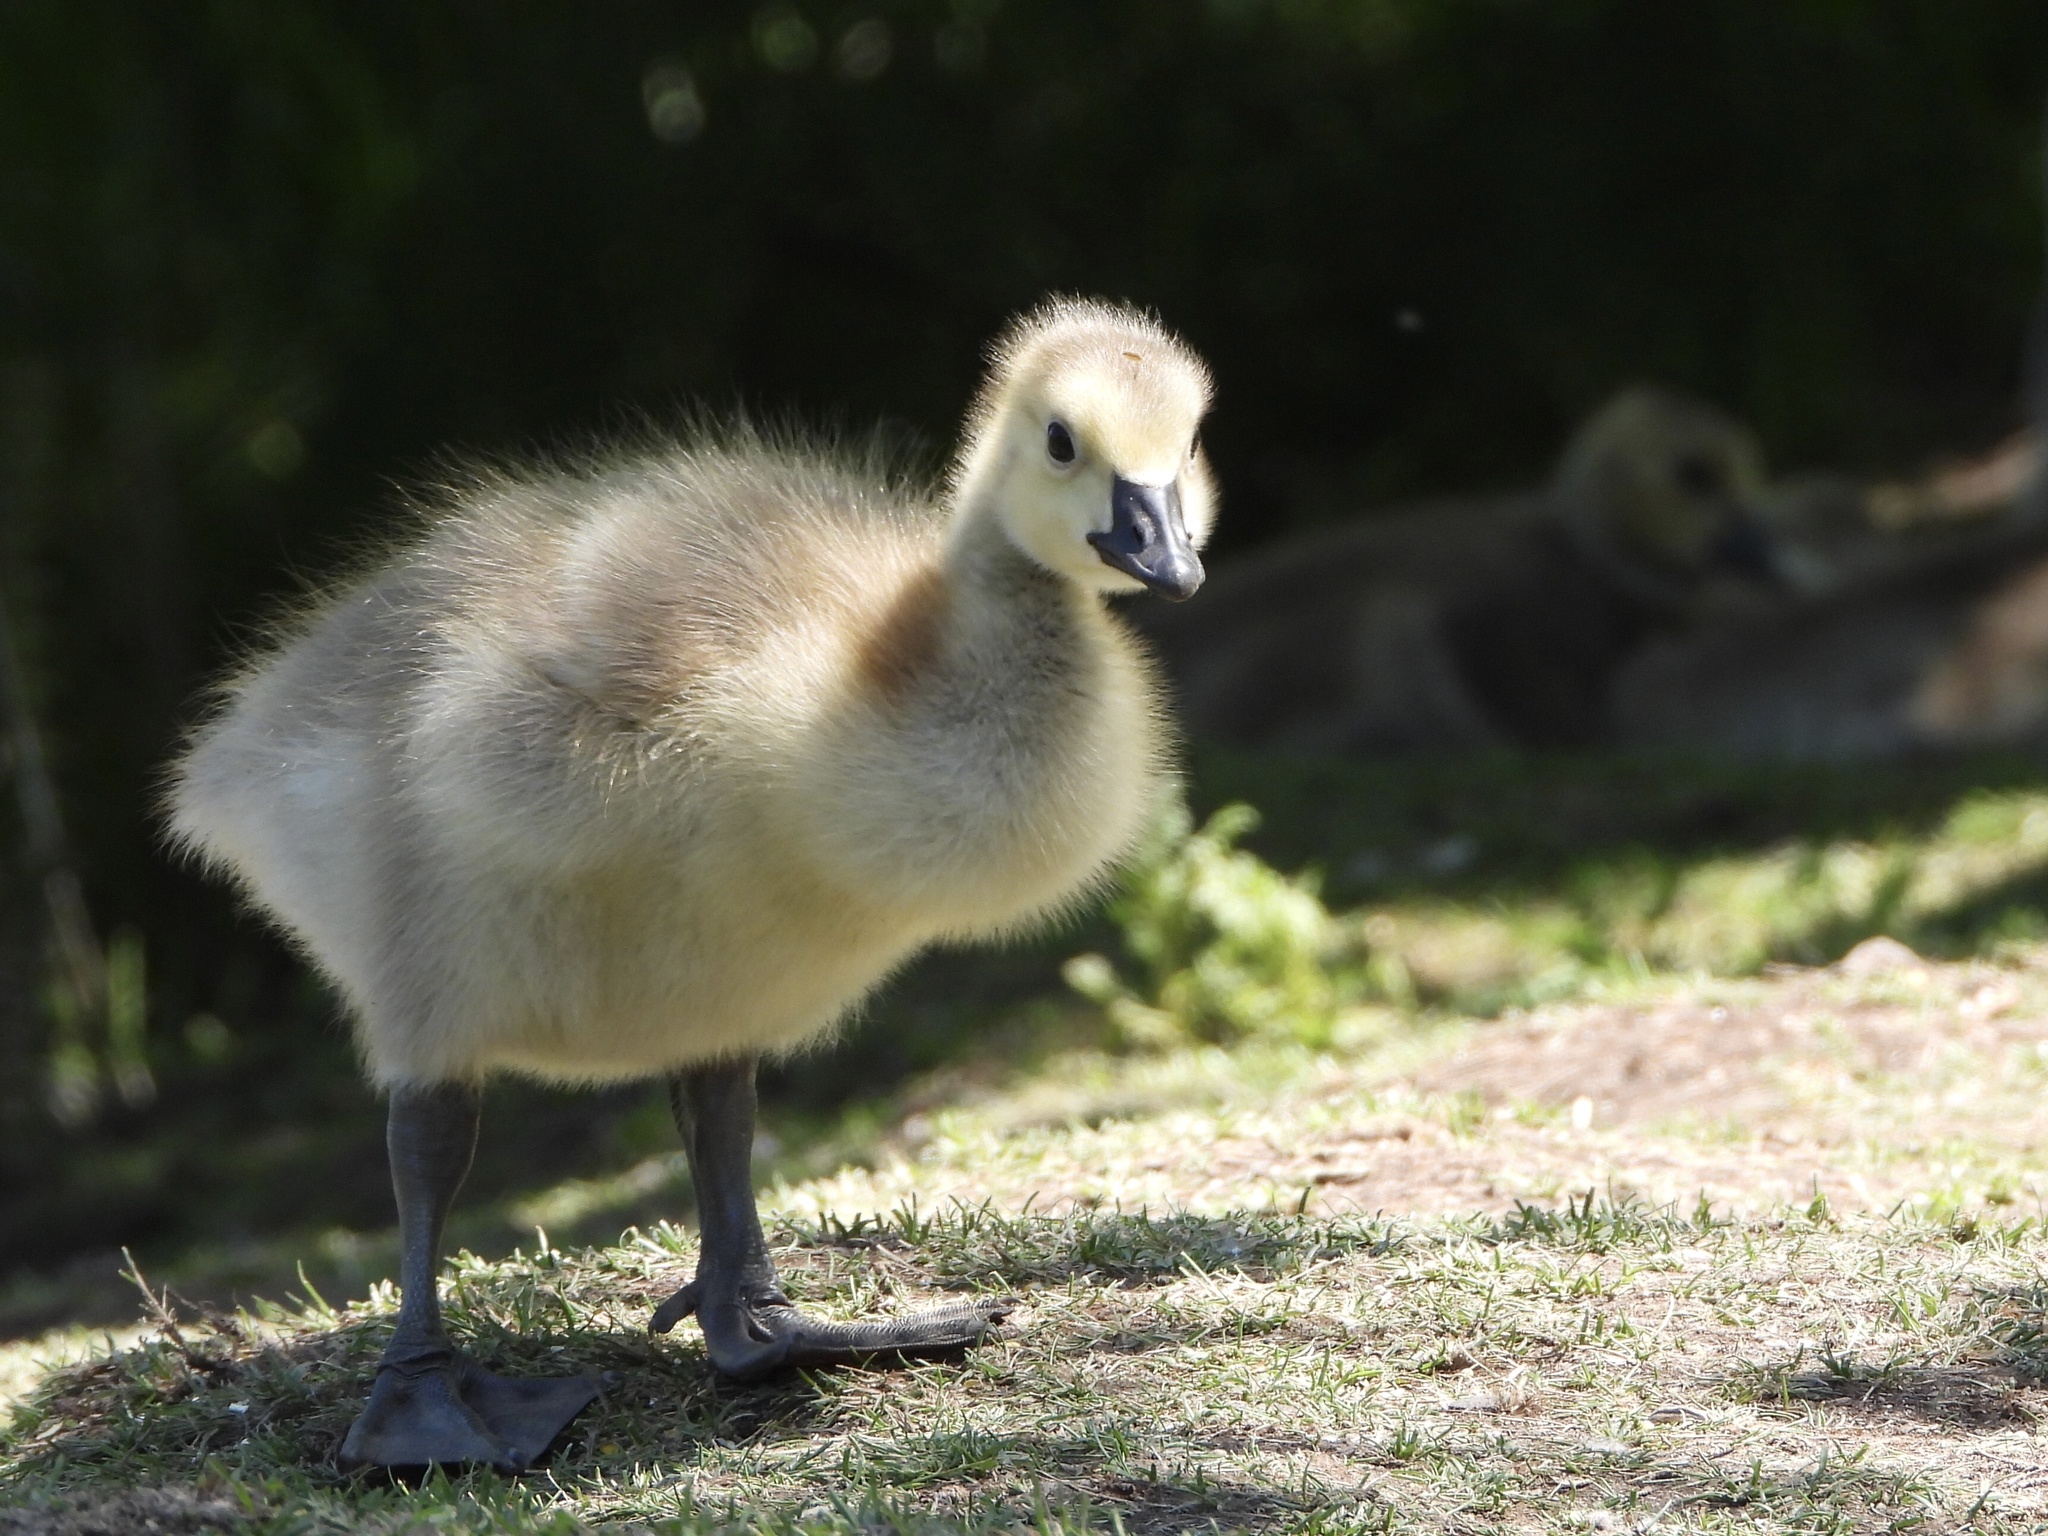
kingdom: Animalia
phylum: Chordata
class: Aves
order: Anseriformes
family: Anatidae
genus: Branta
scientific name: Branta canadensis
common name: Canada goose
